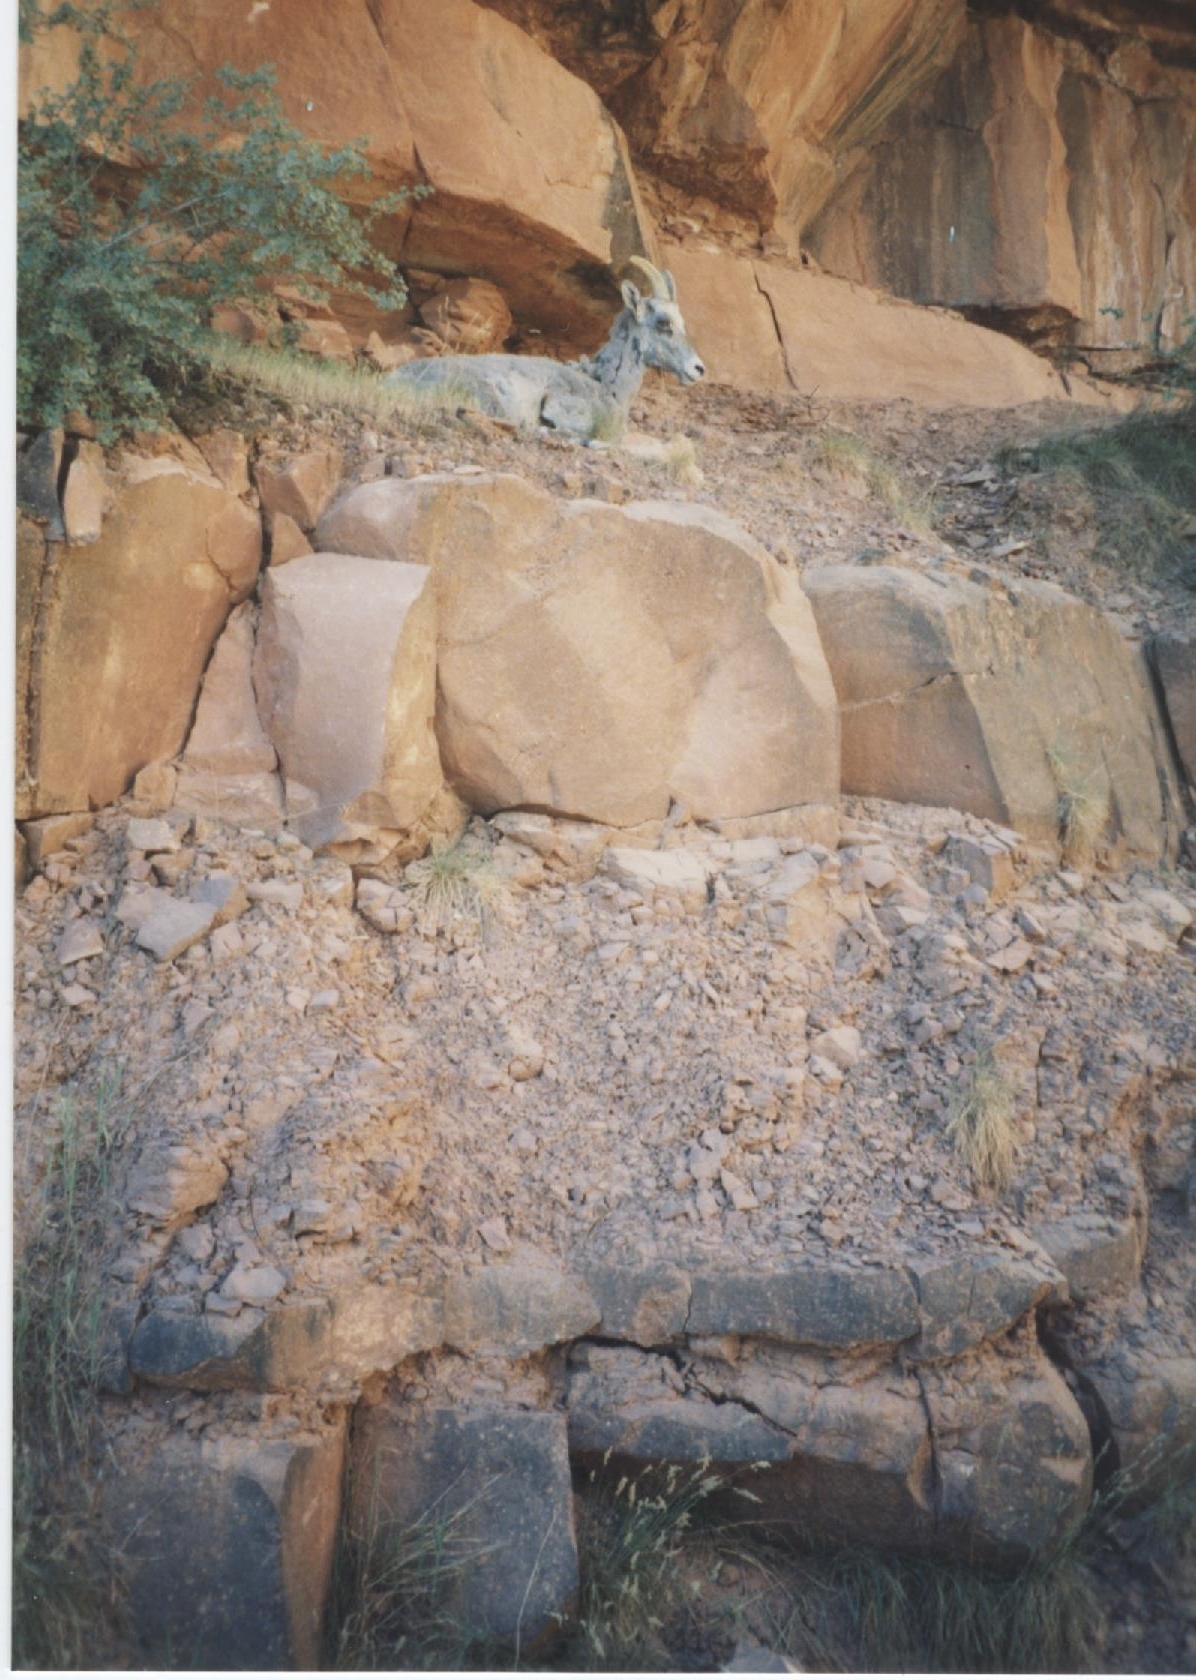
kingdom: Animalia
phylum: Chordata
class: Mammalia
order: Artiodactyla
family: Bovidae
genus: Ovis
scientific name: Ovis canadensis
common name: Bighorn sheep
